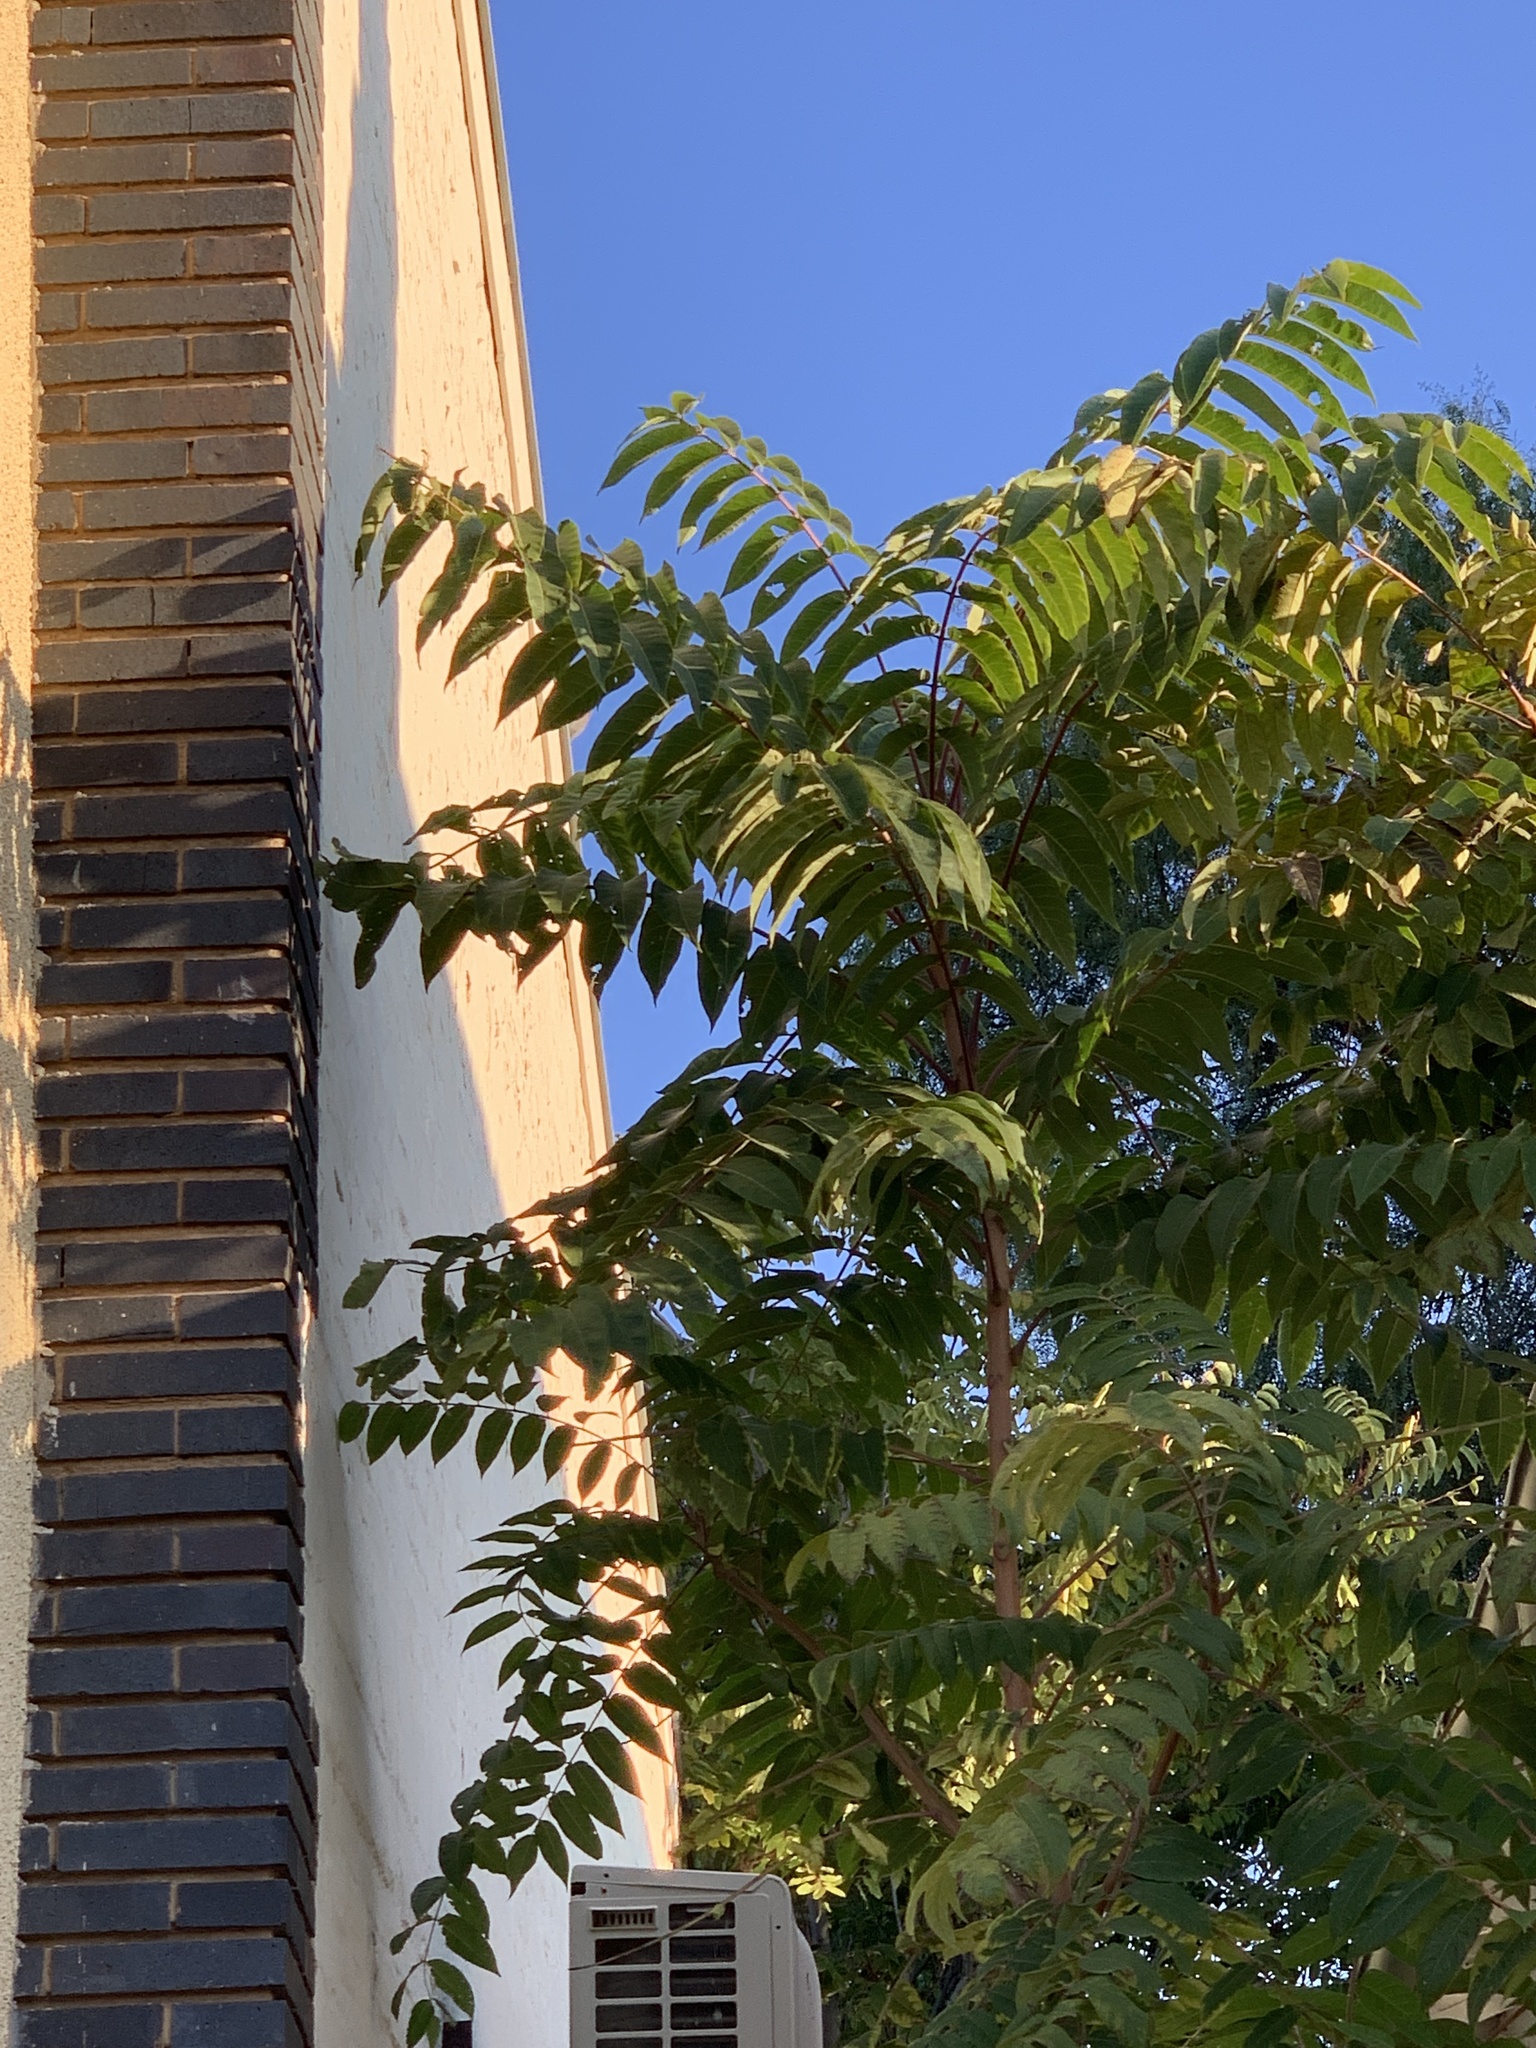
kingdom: Plantae
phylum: Tracheophyta
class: Magnoliopsida
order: Sapindales
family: Simaroubaceae
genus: Ailanthus
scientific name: Ailanthus altissima
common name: Tree-of-heaven
